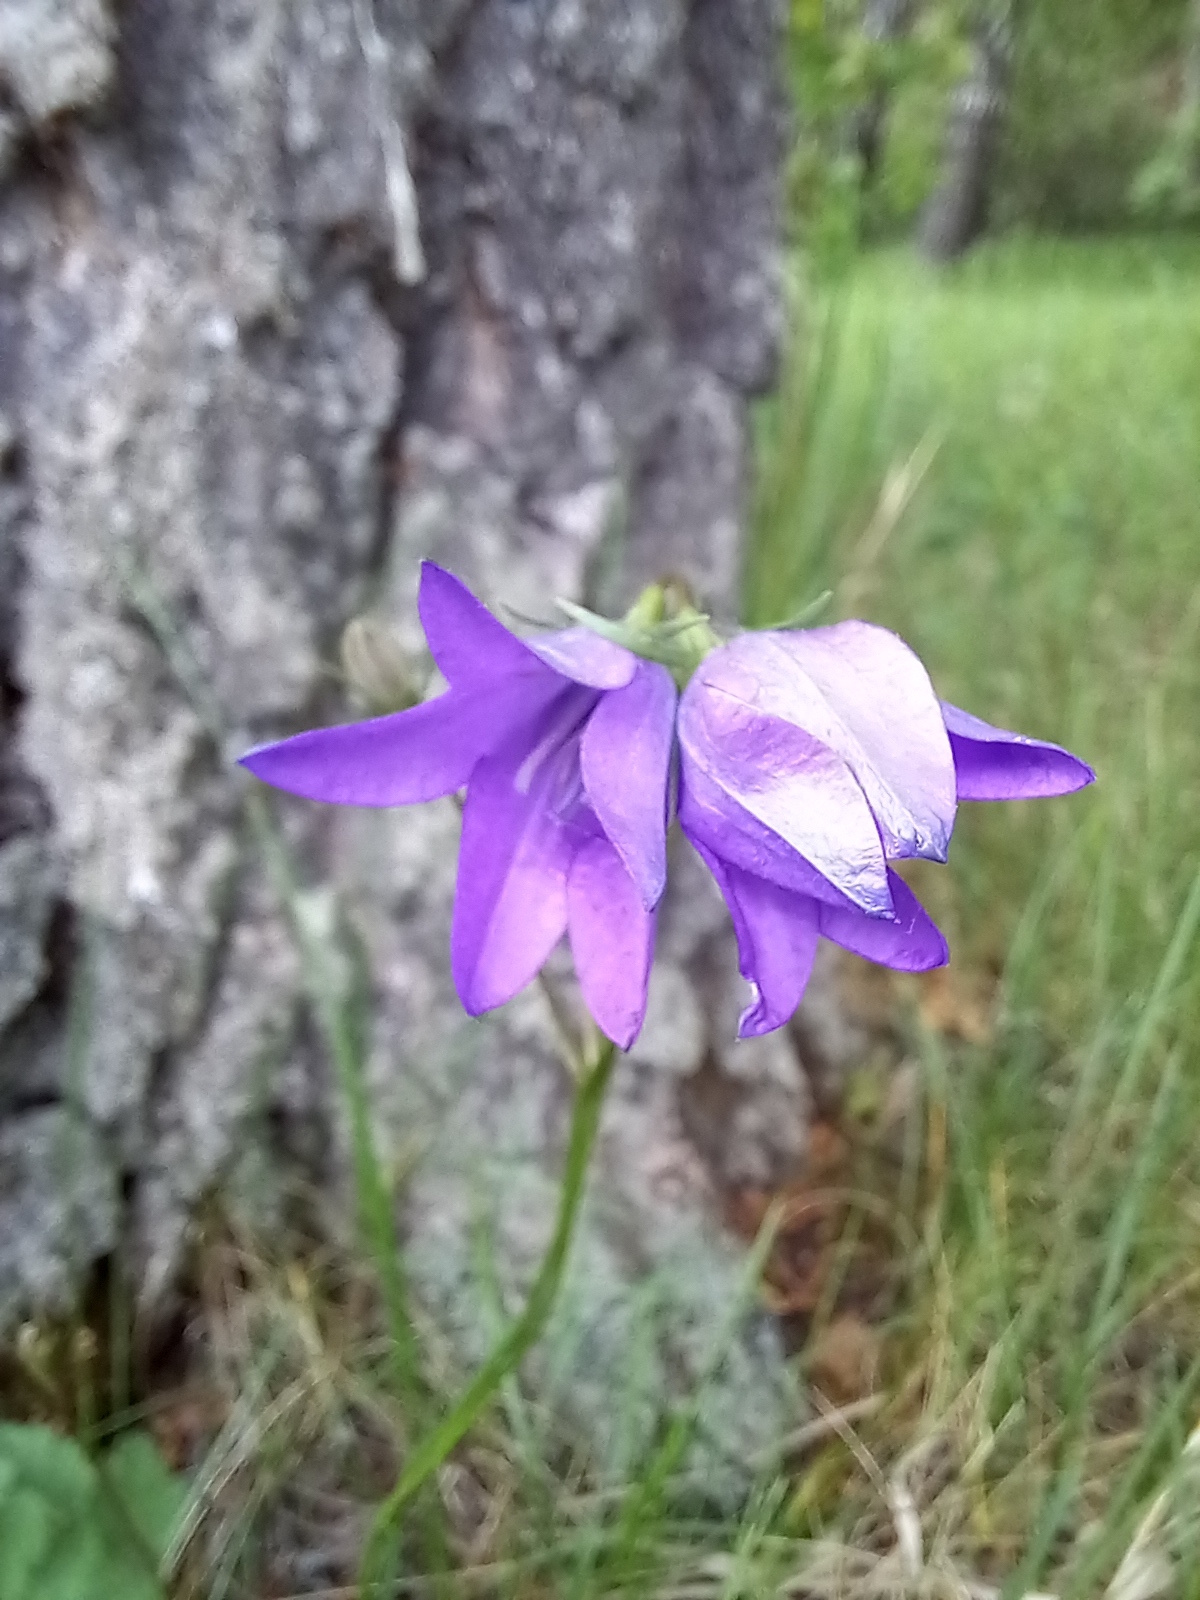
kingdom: Plantae
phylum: Tracheophyta
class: Magnoliopsida
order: Asterales
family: Campanulaceae
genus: Campanula
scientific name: Campanula stevenii
